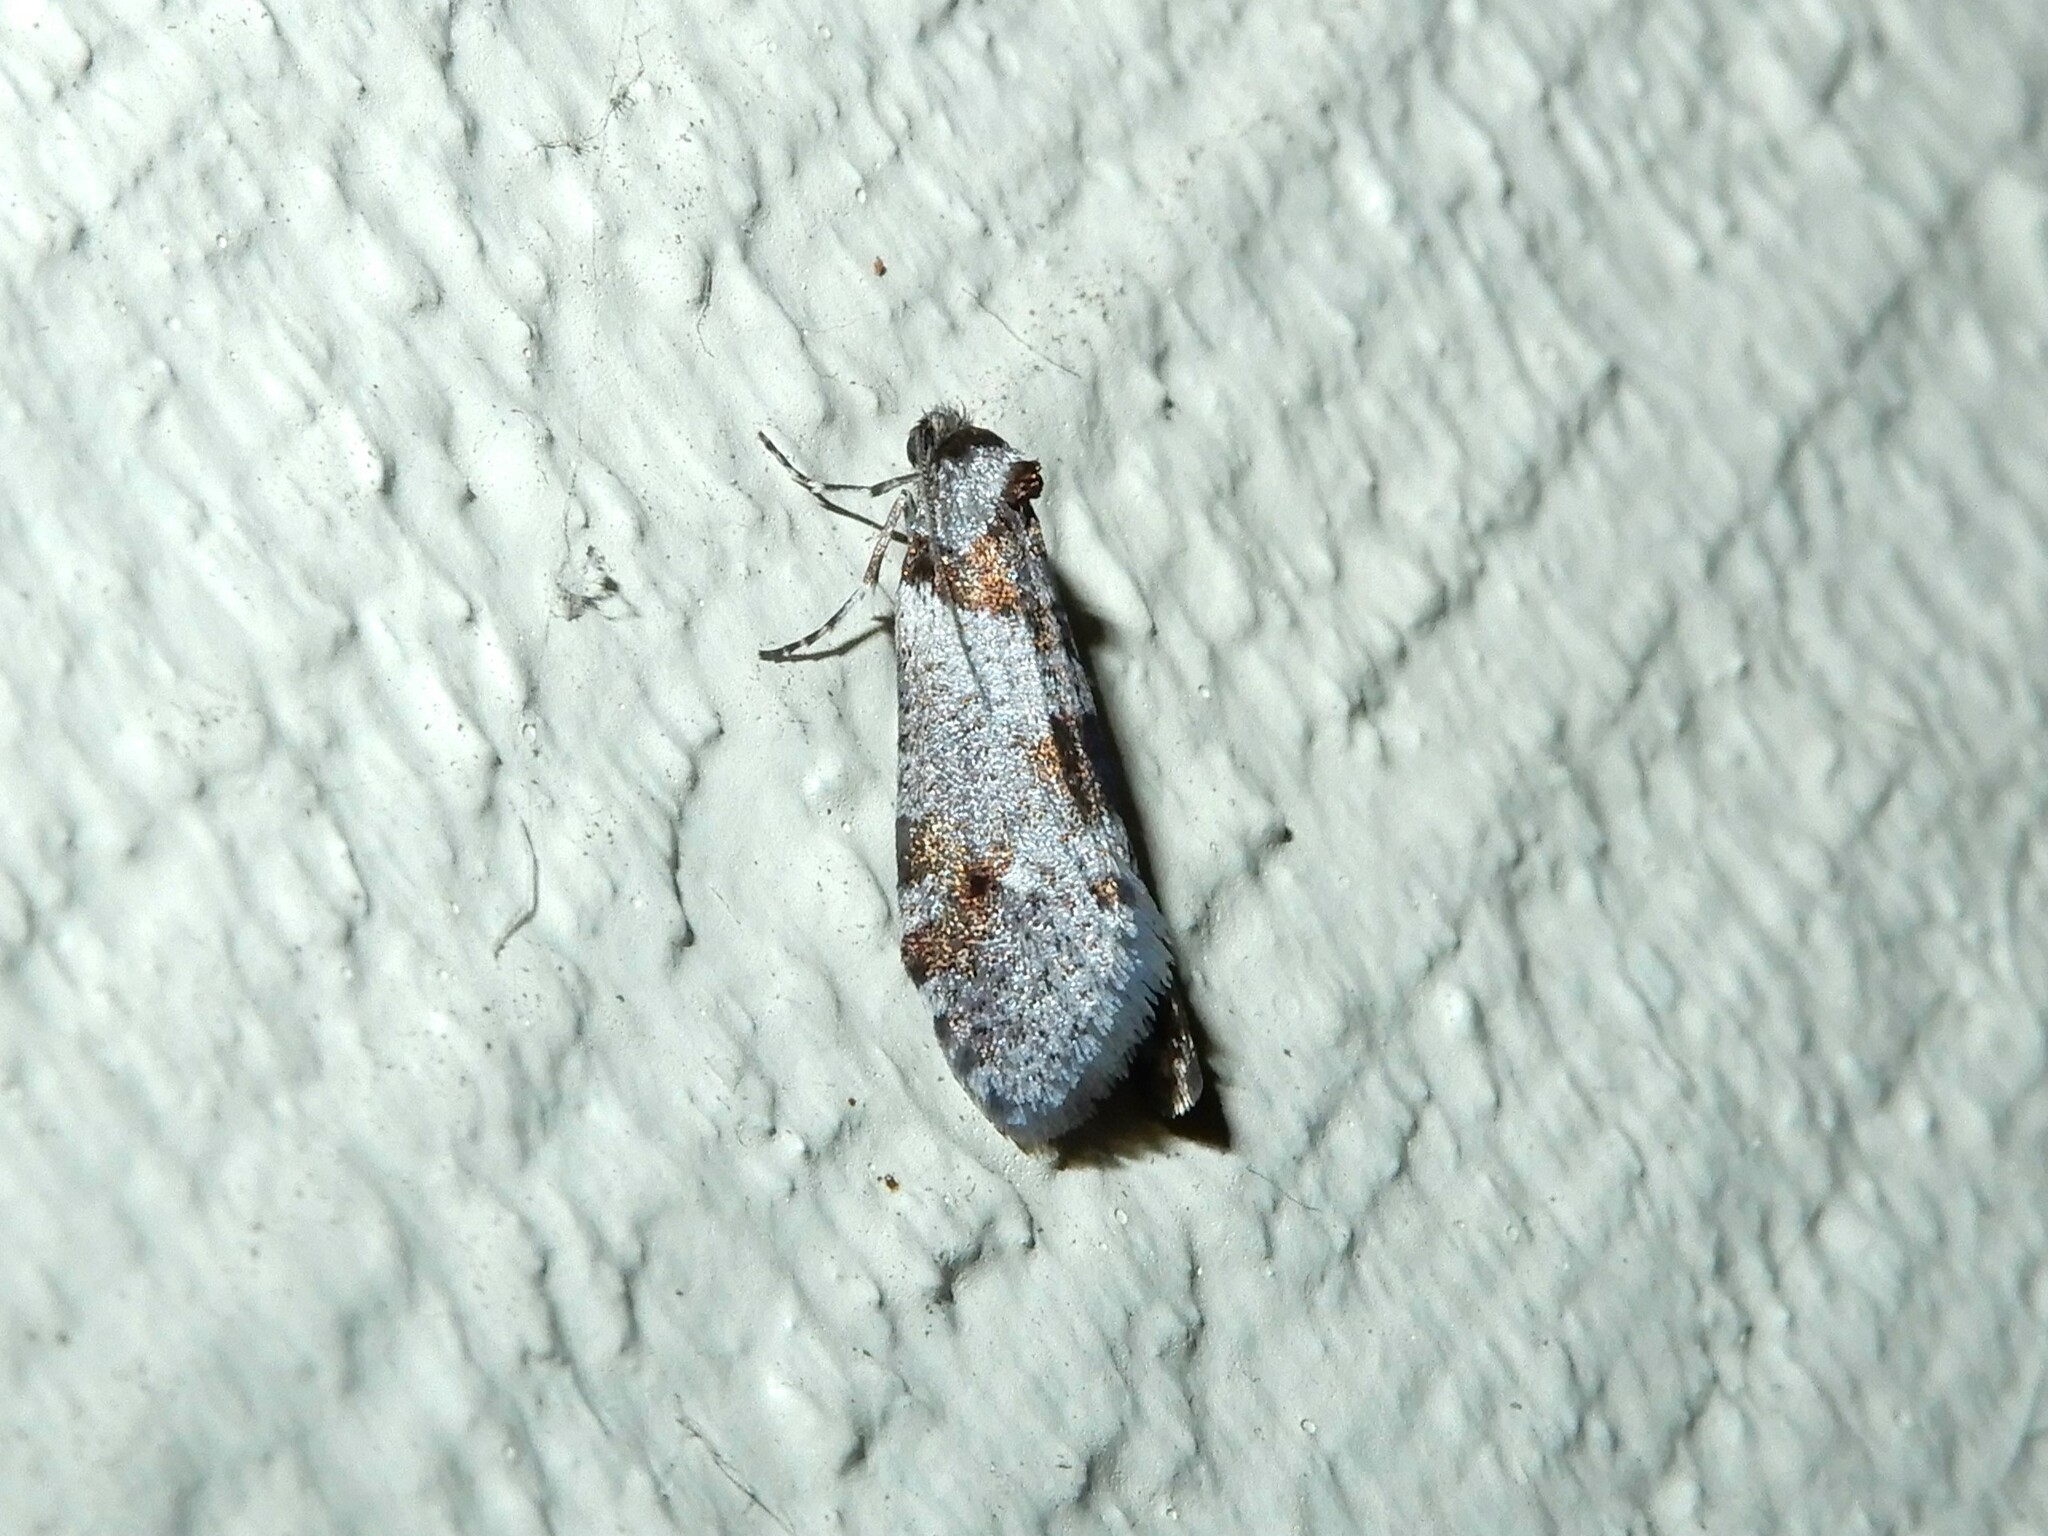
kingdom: Animalia
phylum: Arthropoda
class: Insecta
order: Lepidoptera
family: Psychidae
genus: Lepidoscia
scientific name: Lepidoscia heliochares
